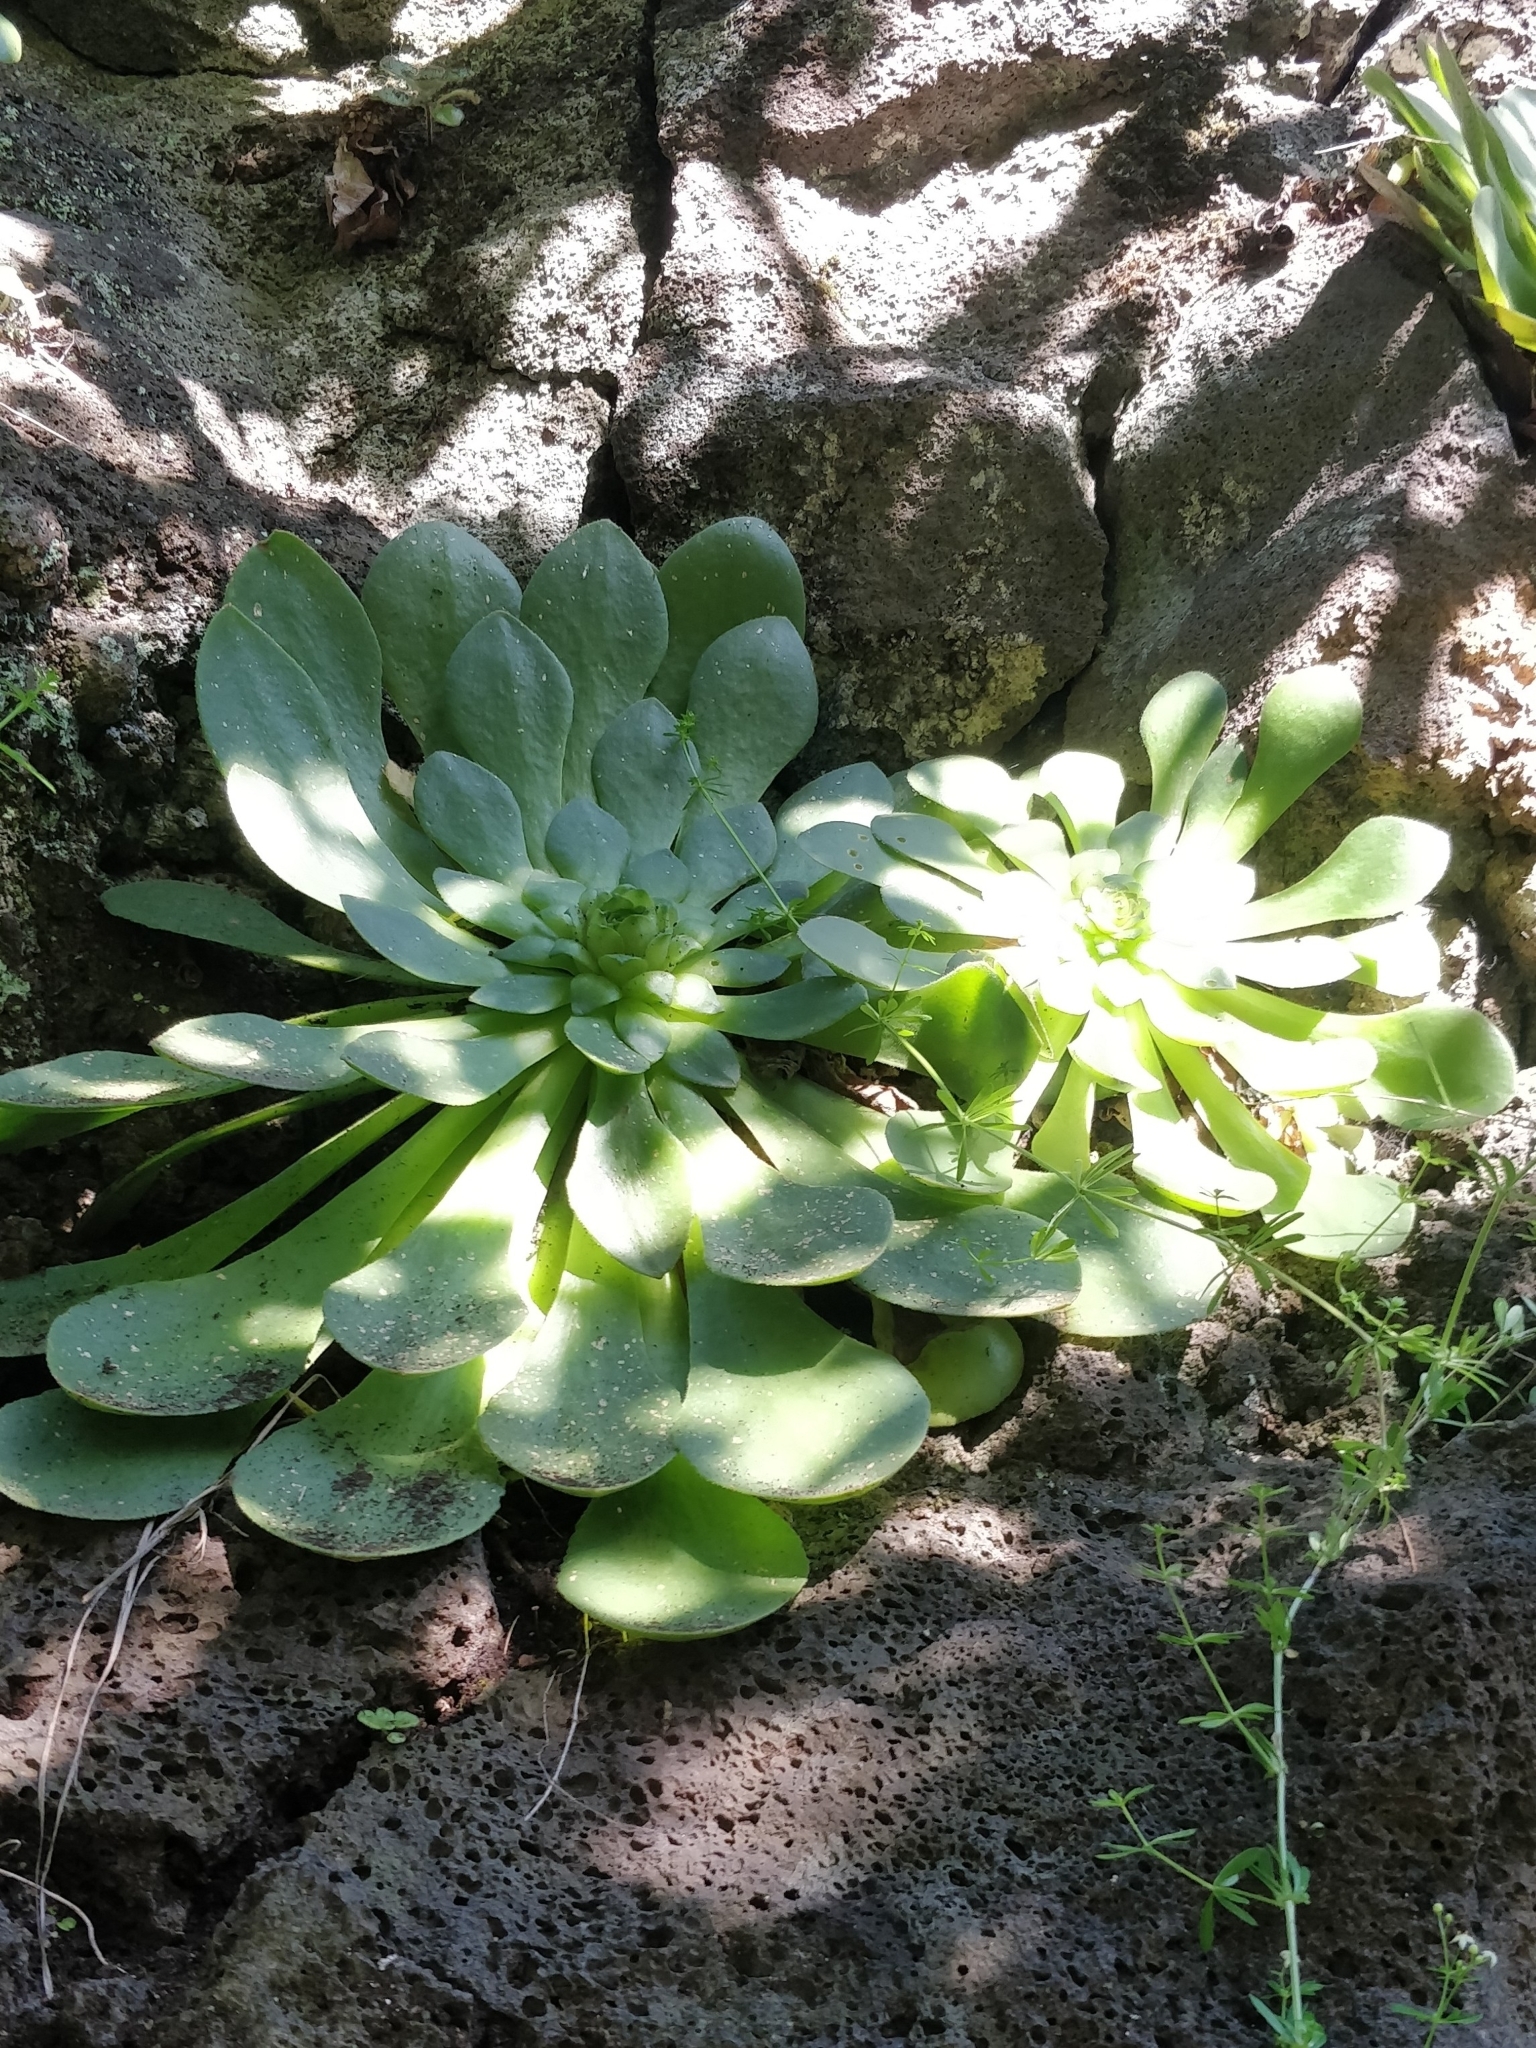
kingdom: Plantae
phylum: Tracheophyta
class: Magnoliopsida
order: Saxifragales
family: Crassulaceae
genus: Aeonium
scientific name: Aeonium glandulosum
